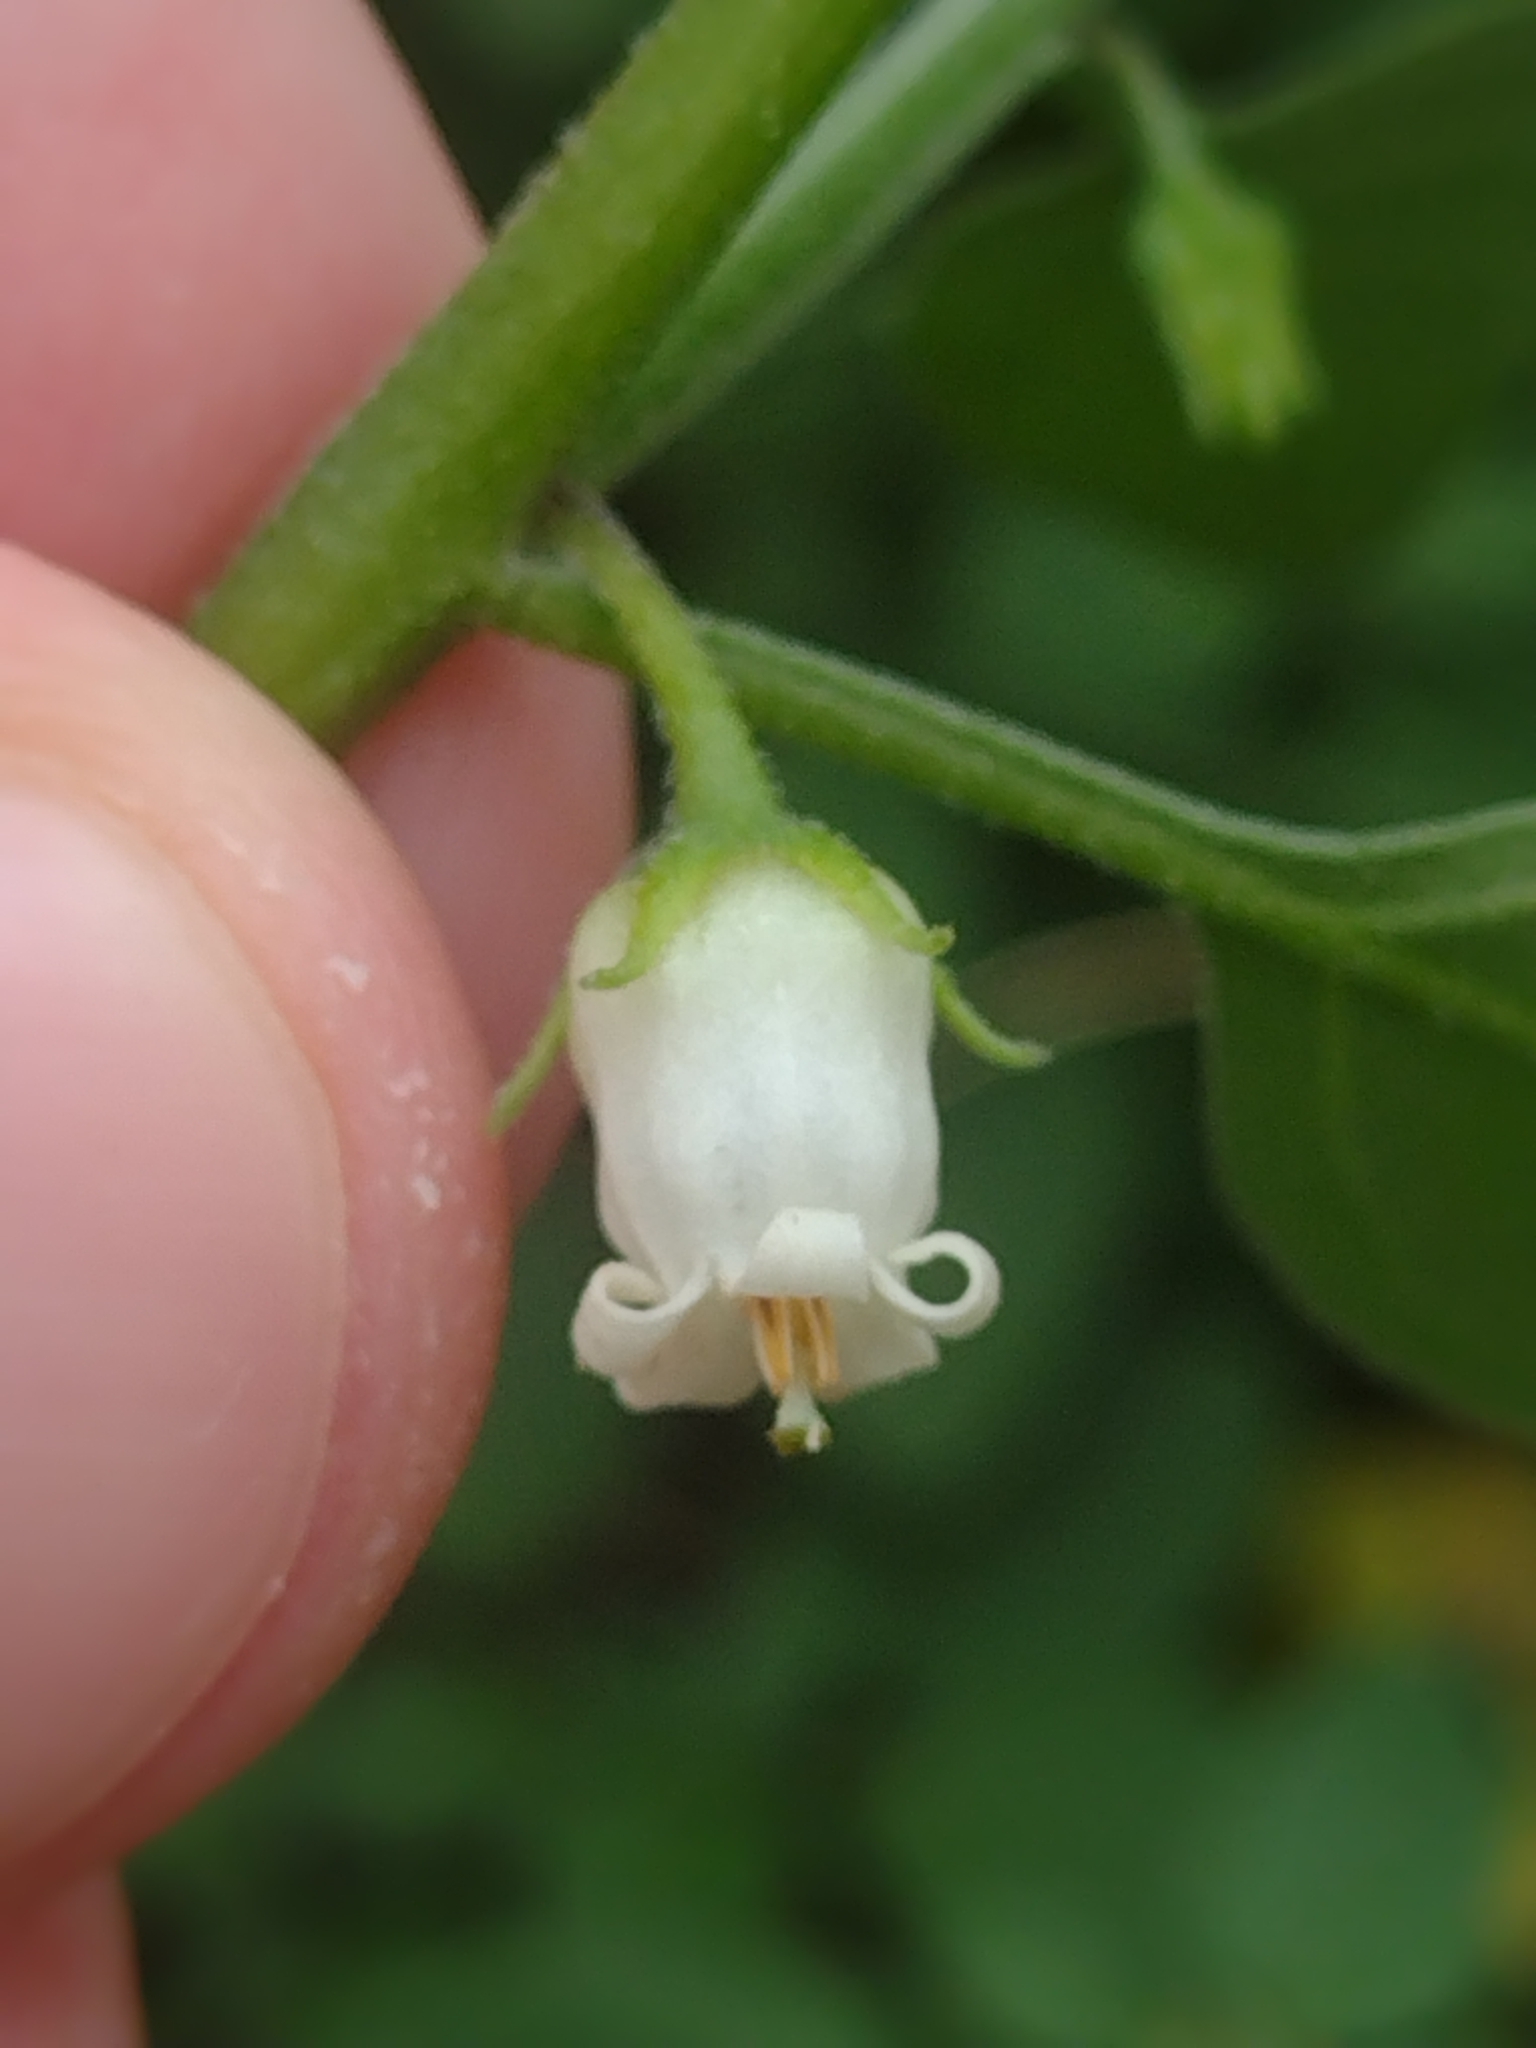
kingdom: Plantae
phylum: Tracheophyta
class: Magnoliopsida
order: Solanales
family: Solanaceae
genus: Salpichroa
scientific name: Salpichroa origanifolia
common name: Lily-of-the-valley-vine
